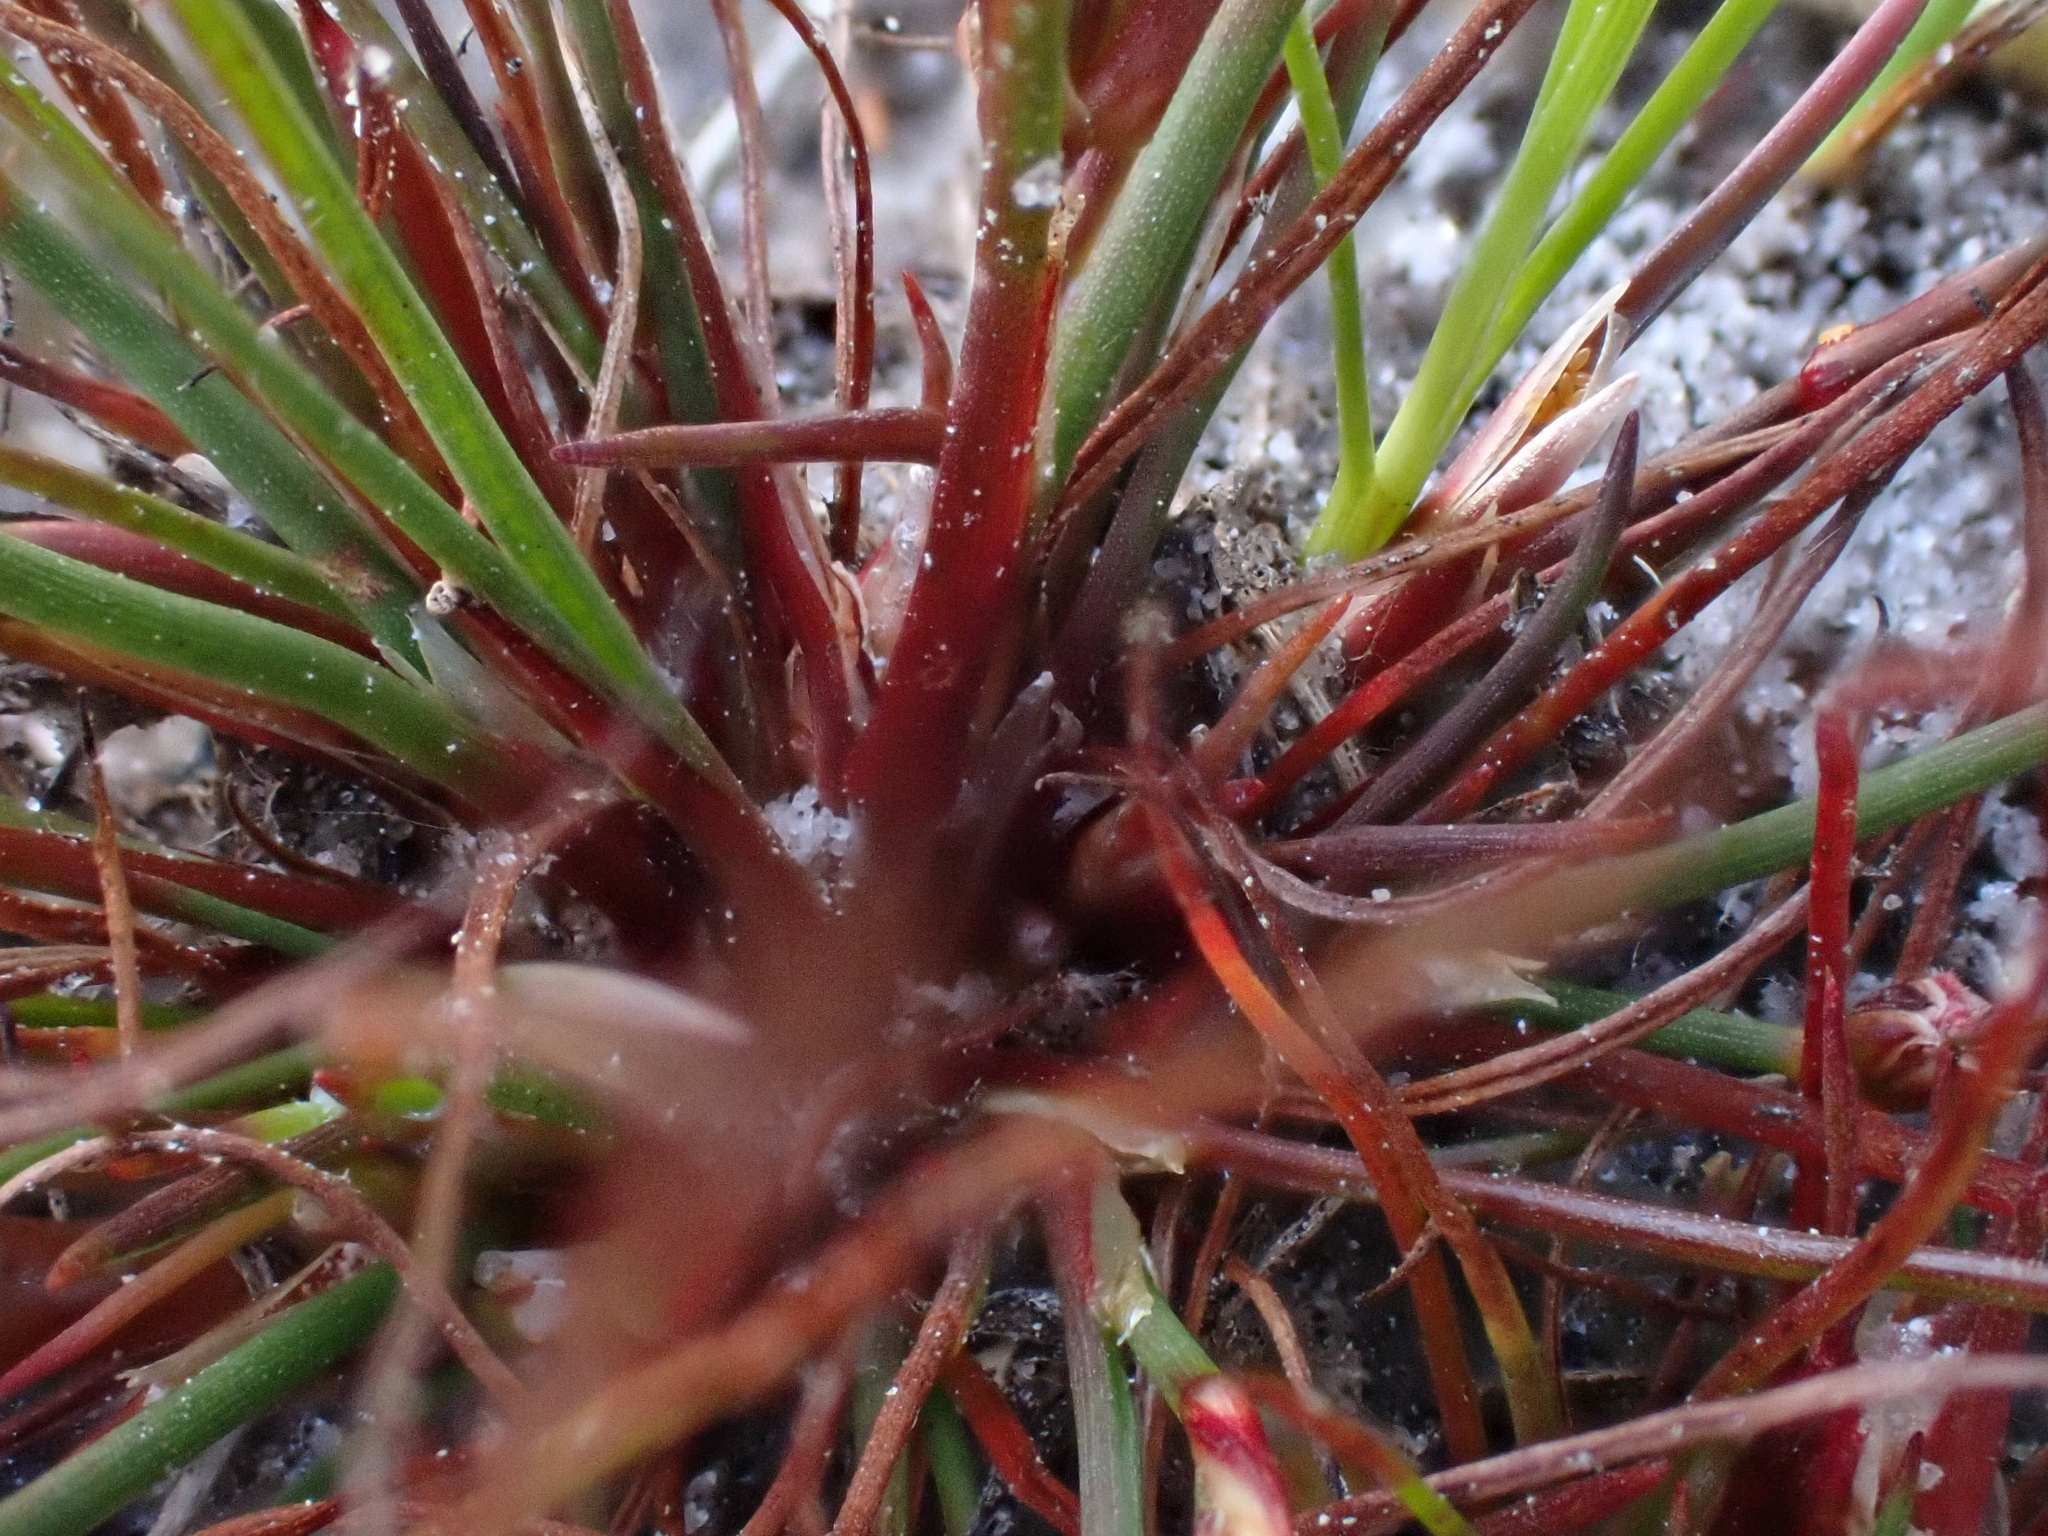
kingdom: Plantae
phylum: Tracheophyta
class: Liliopsida
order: Poales
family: Juncaceae
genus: Juncus
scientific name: Juncus bulbosus
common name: Bulbous rush
